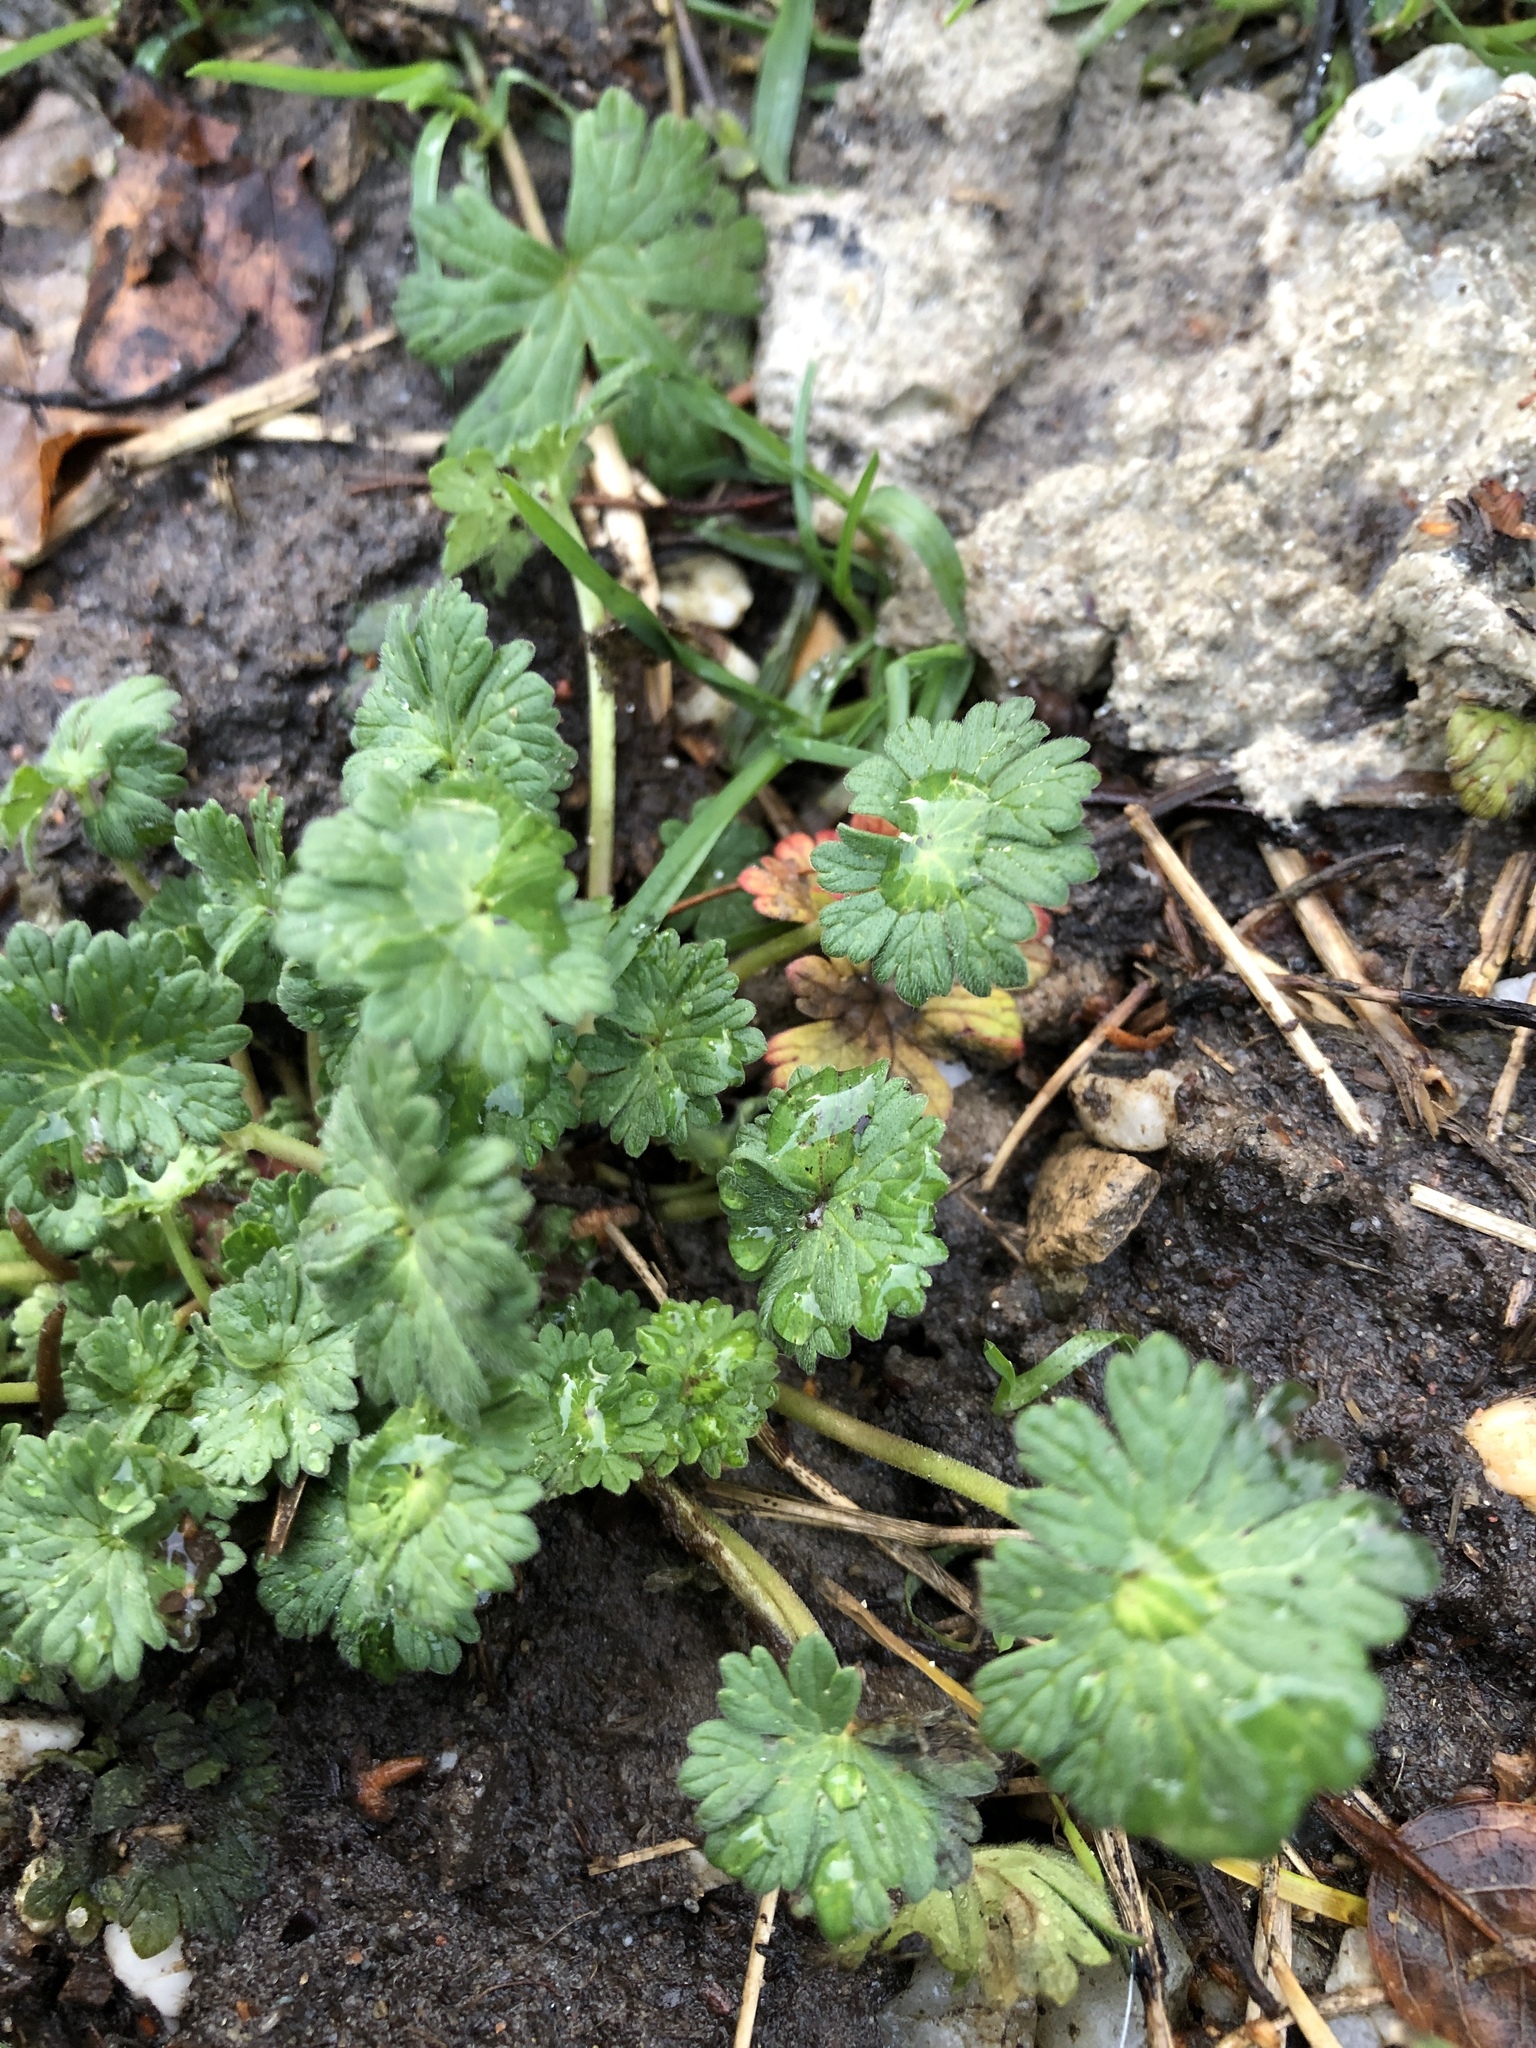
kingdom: Plantae
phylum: Tracheophyta
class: Magnoliopsida
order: Geraniales
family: Geraniaceae
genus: Geranium
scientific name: Geranium molle
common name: Dove's-foot crane's-bill
